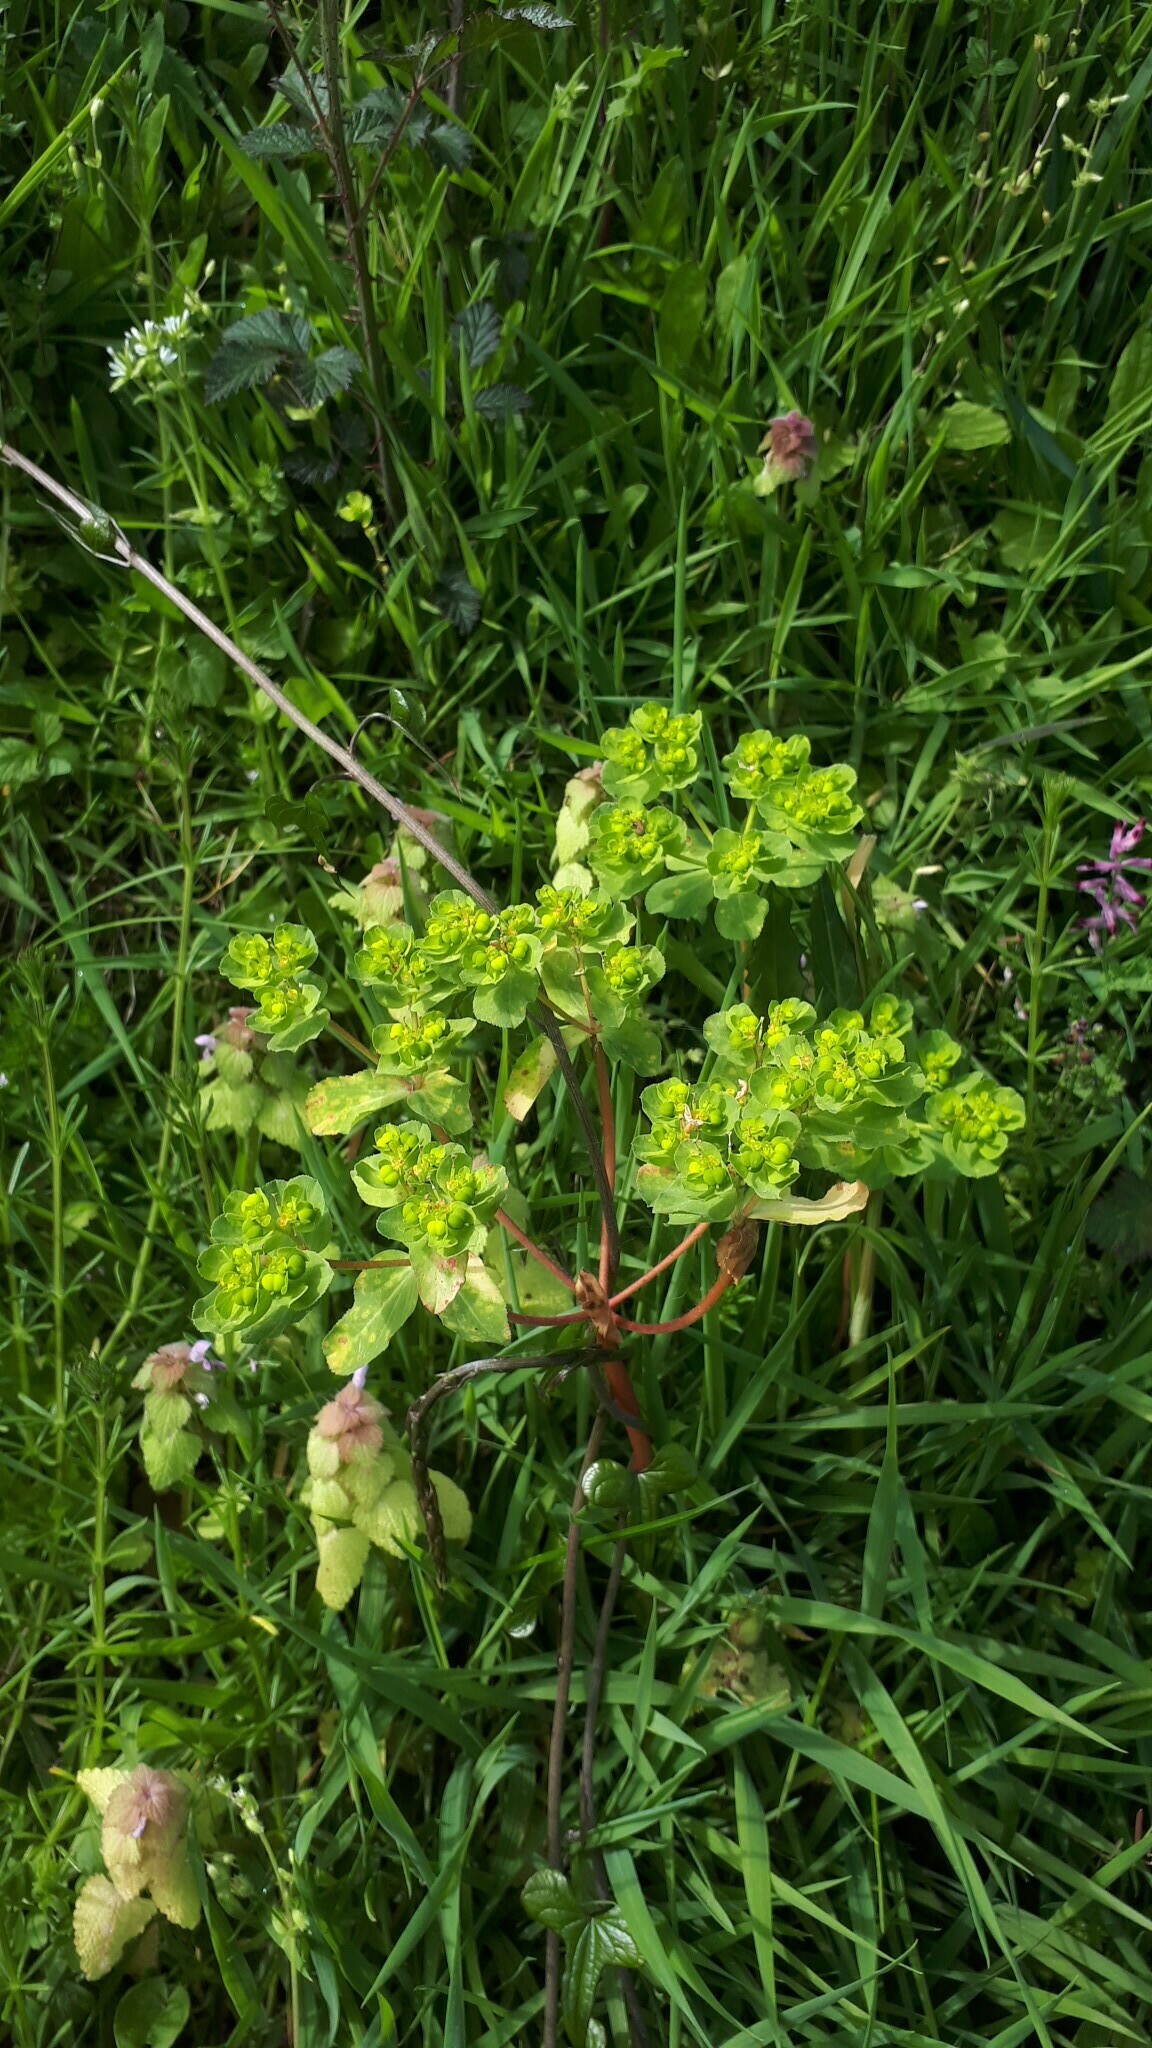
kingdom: Plantae
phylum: Tracheophyta
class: Magnoliopsida
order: Malpighiales
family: Euphorbiaceae
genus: Euphorbia
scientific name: Euphorbia helioscopia
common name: Sun spurge
